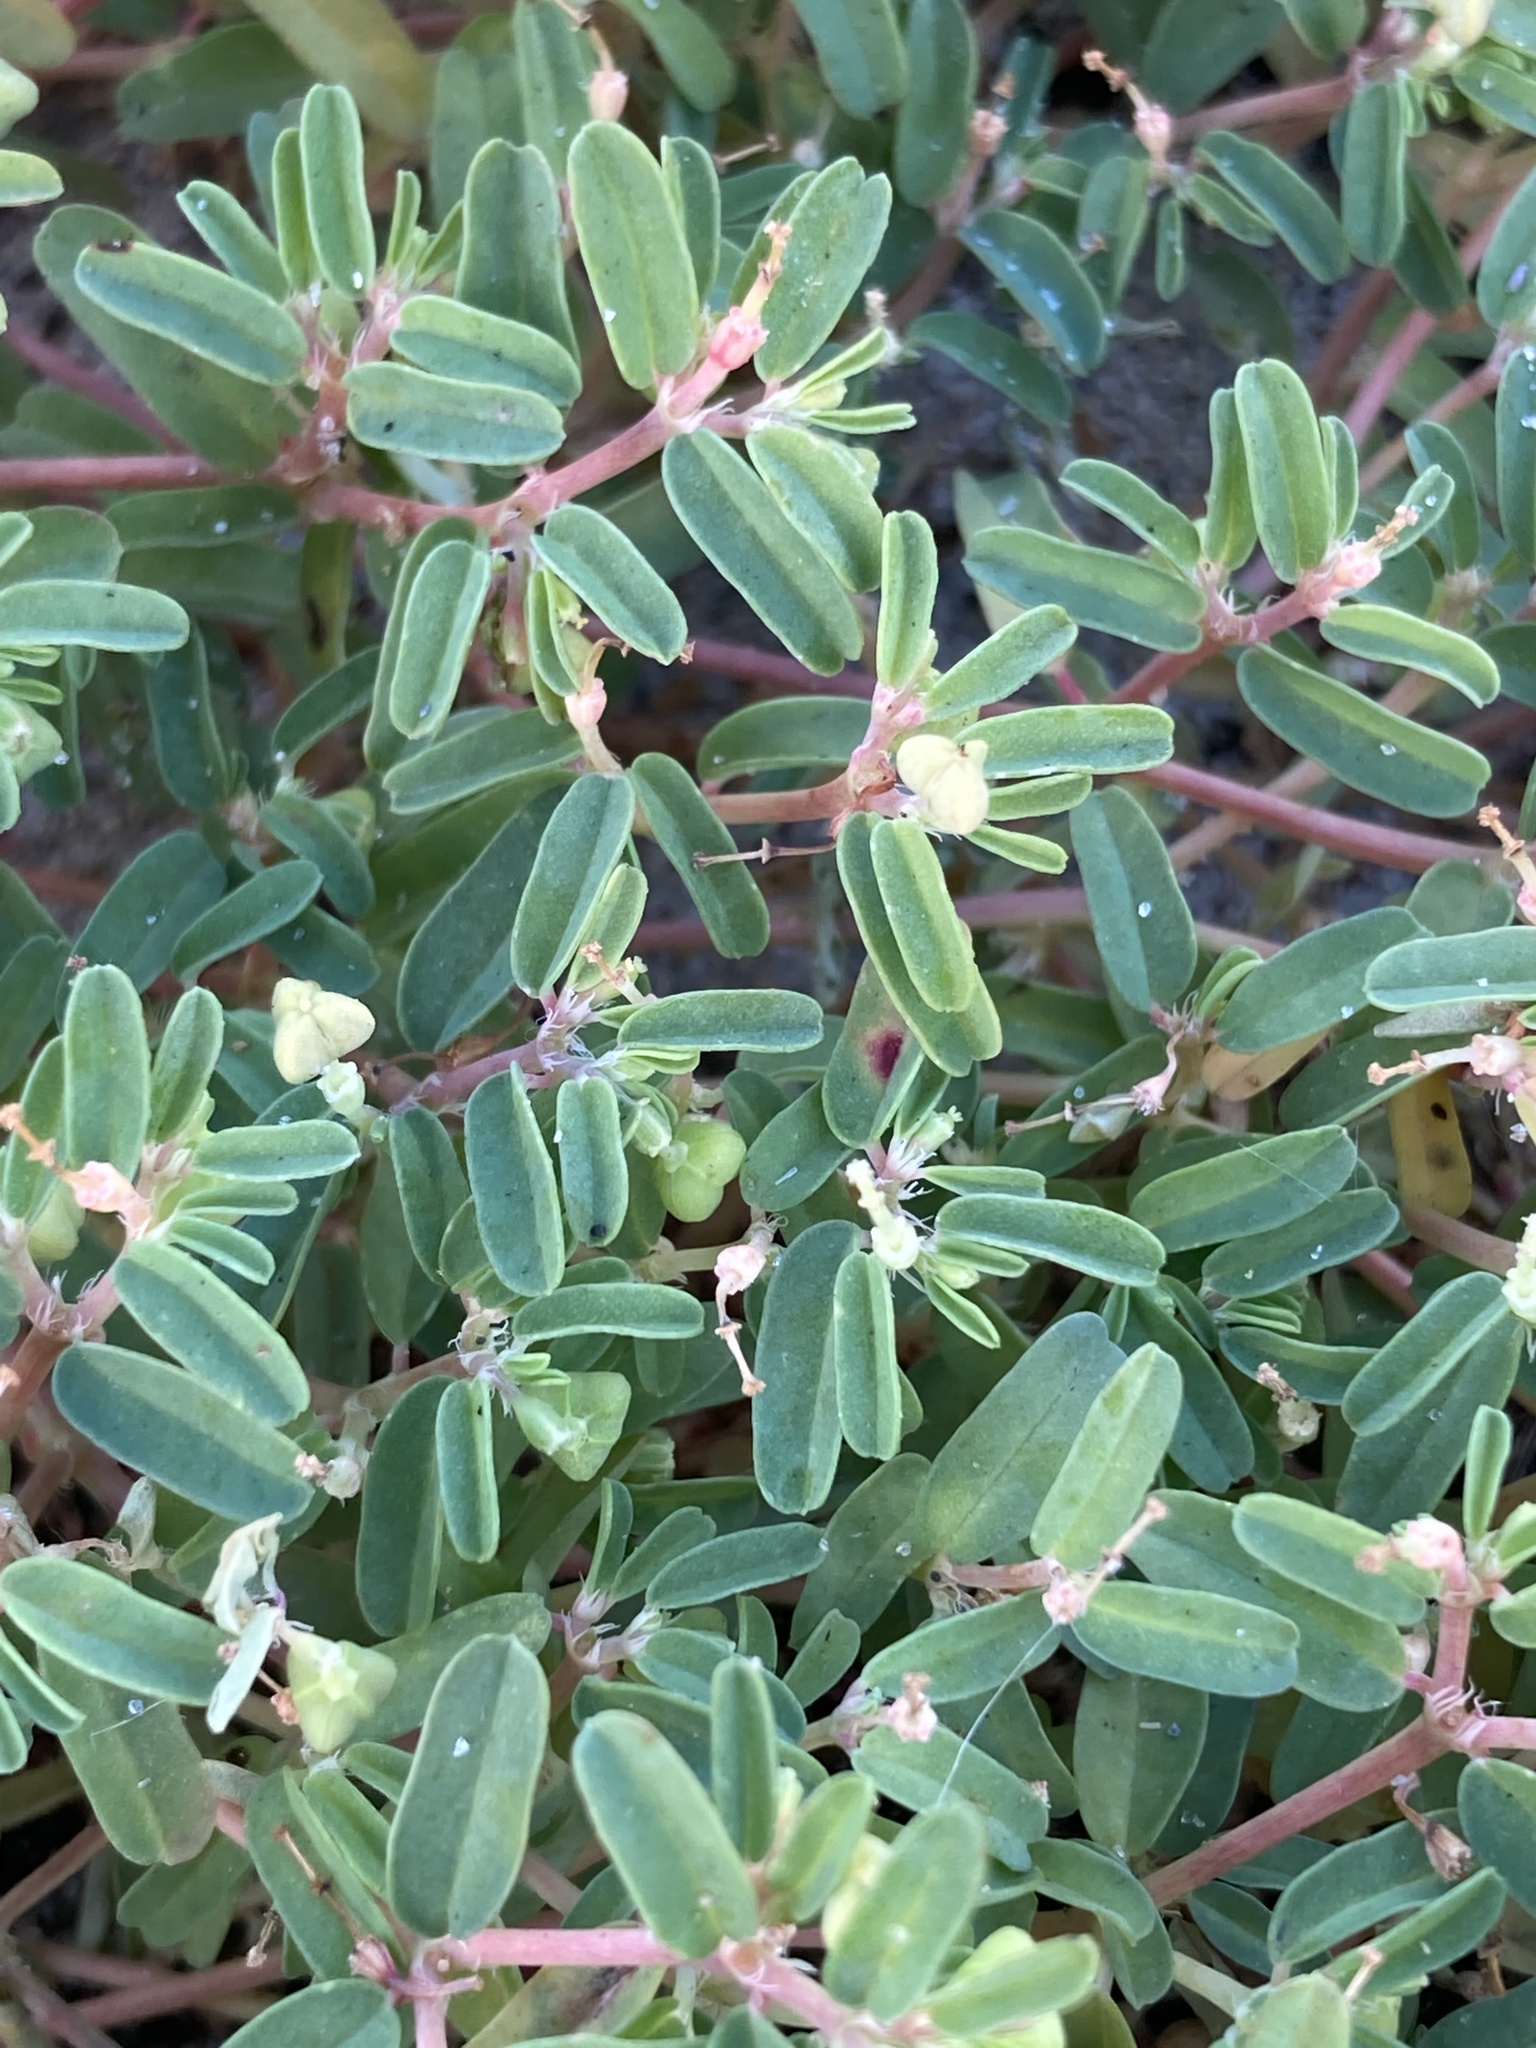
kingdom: Plantae
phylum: Tracheophyta
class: Magnoliopsida
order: Malpighiales
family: Euphorbiaceae
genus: Euphorbia
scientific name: Euphorbia bombensis
